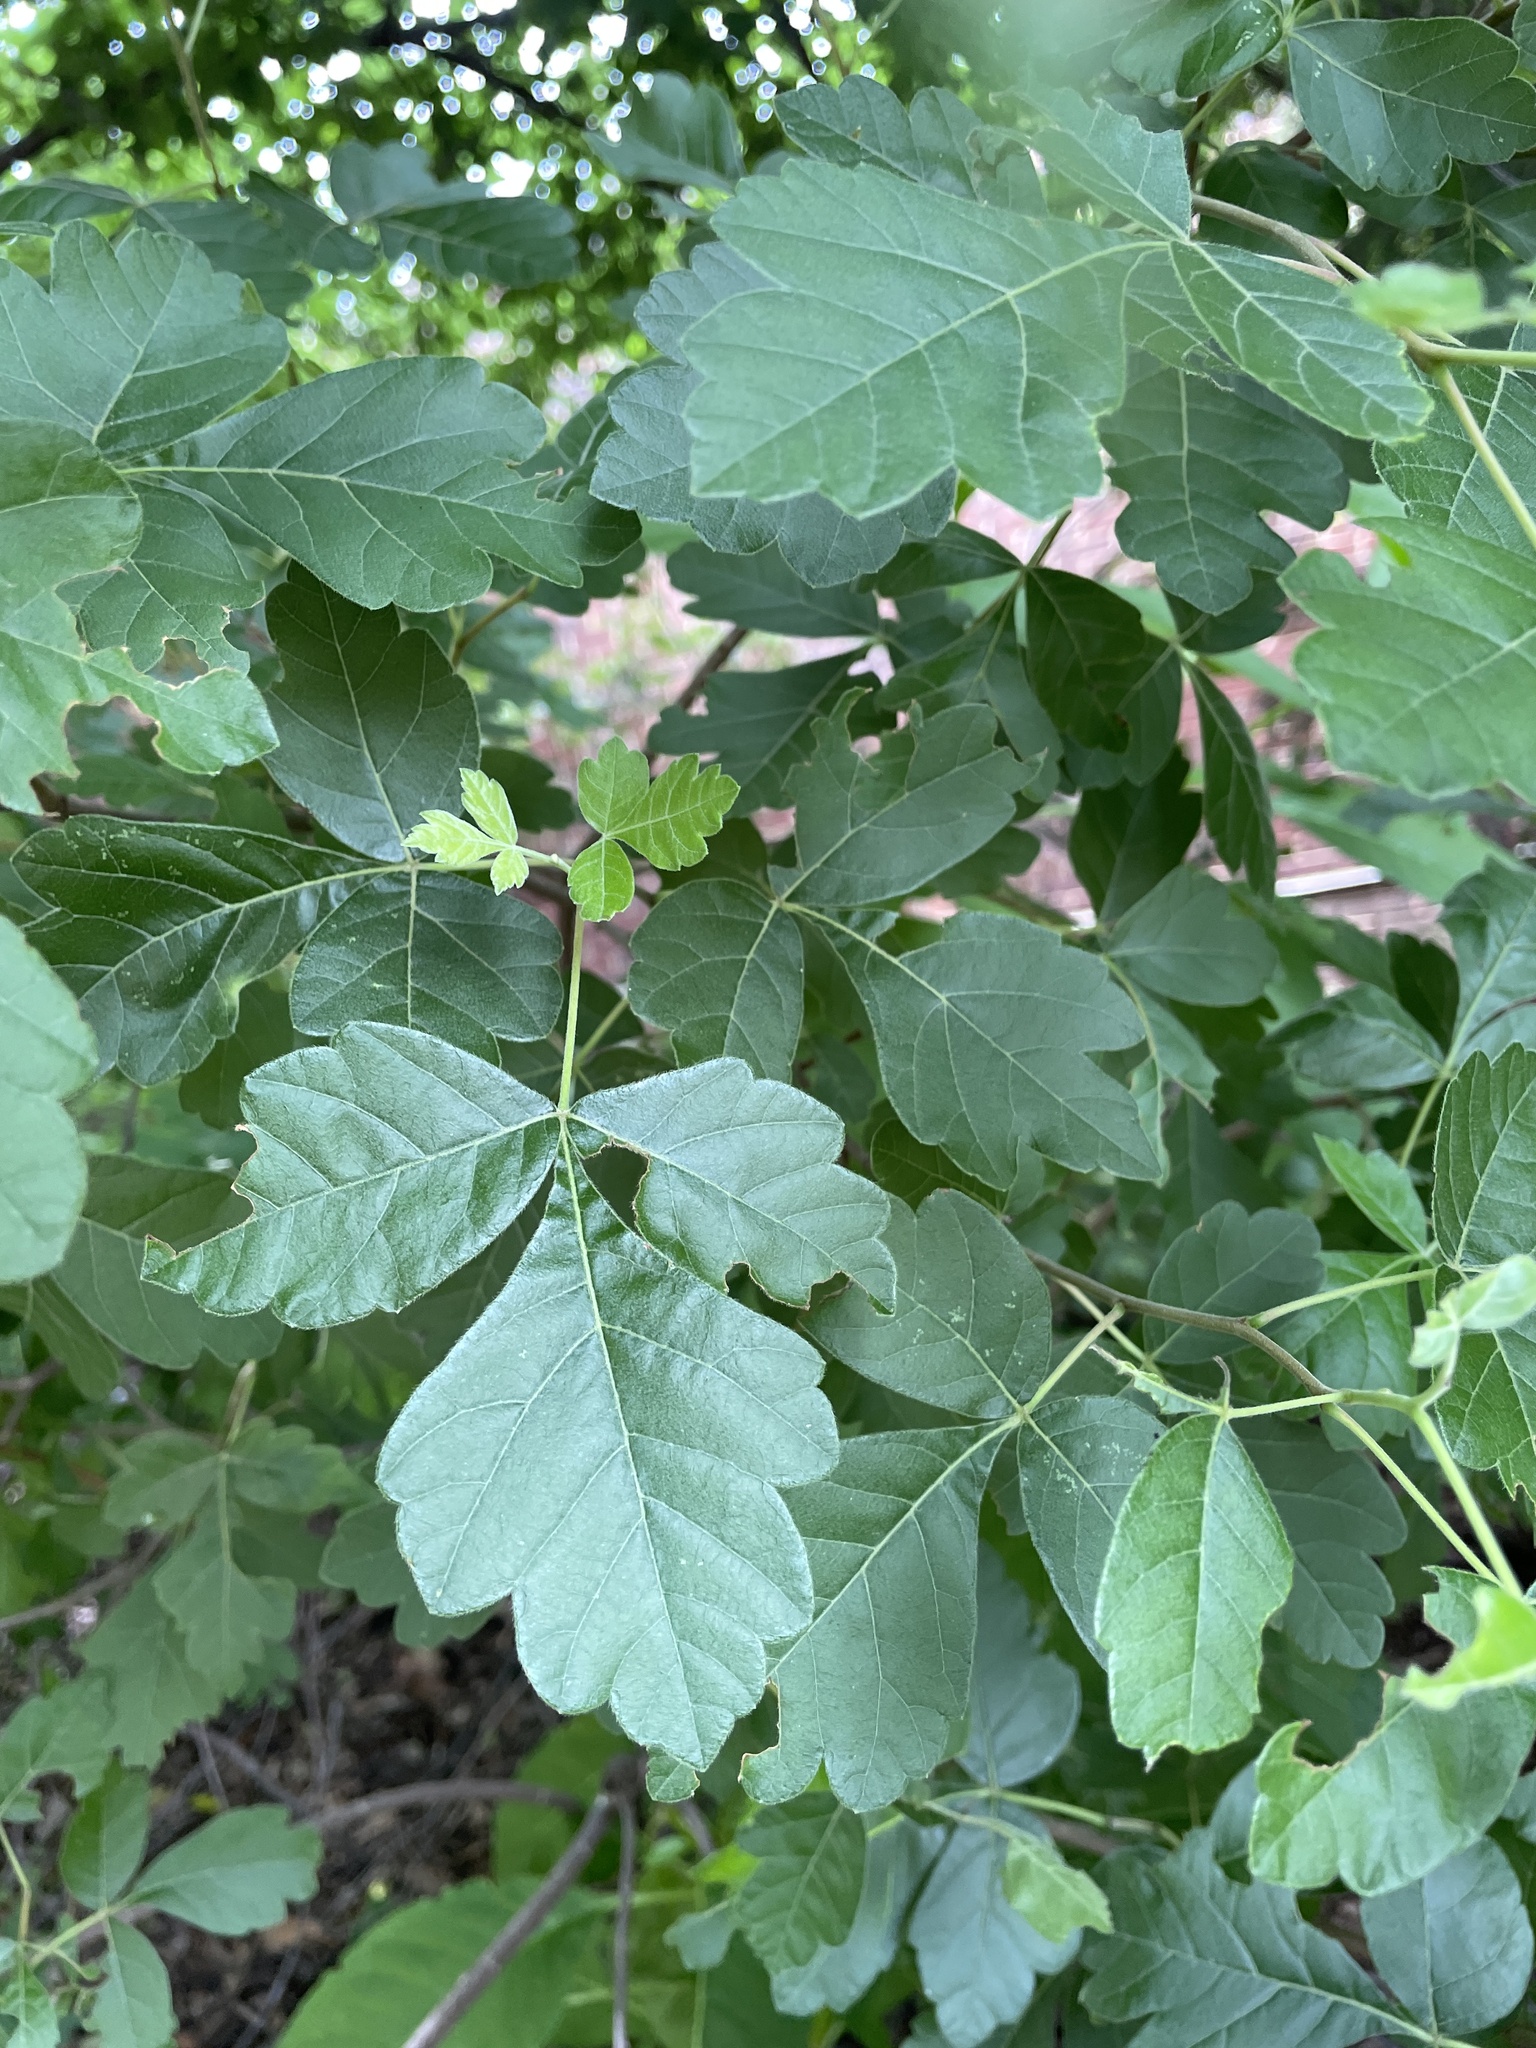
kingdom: Plantae
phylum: Tracheophyta
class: Magnoliopsida
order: Sapindales
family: Anacardiaceae
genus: Rhus
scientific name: Rhus aromatica
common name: Aromatic sumac
